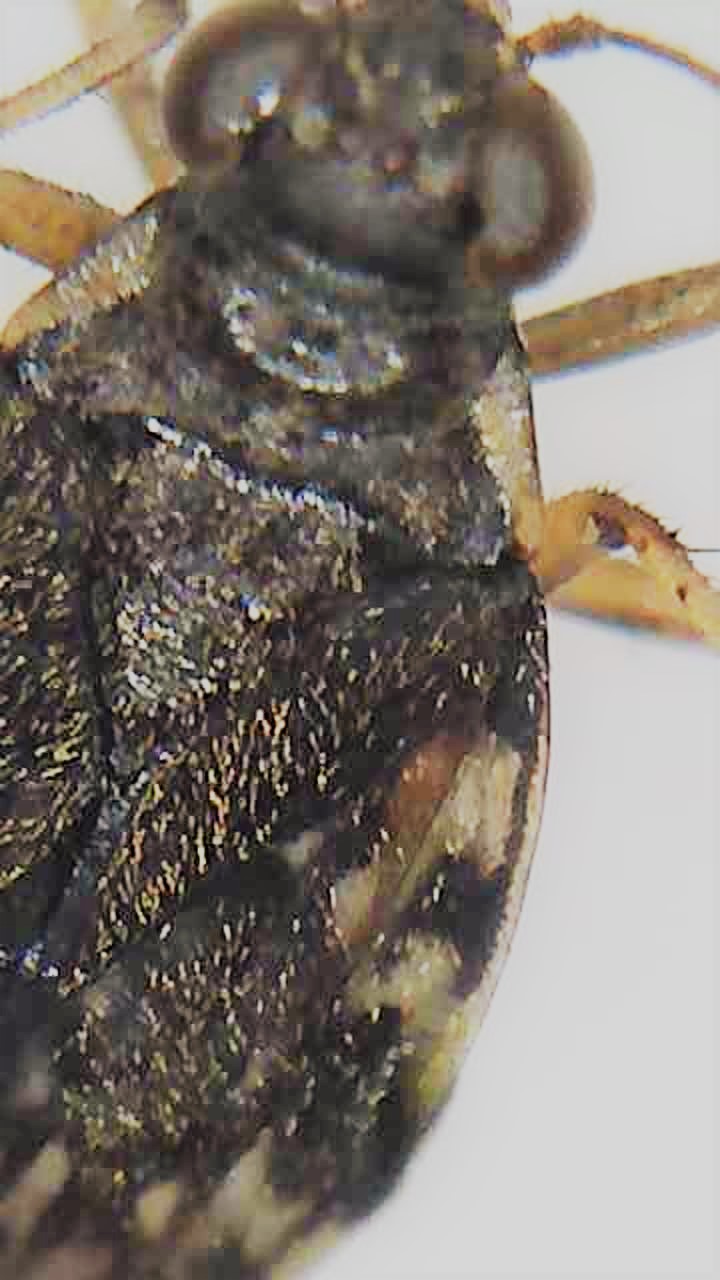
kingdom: Animalia
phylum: Arthropoda
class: Insecta
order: Hemiptera
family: Saldidae
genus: Kiwisaldula
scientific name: Kiwisaldula parvula
